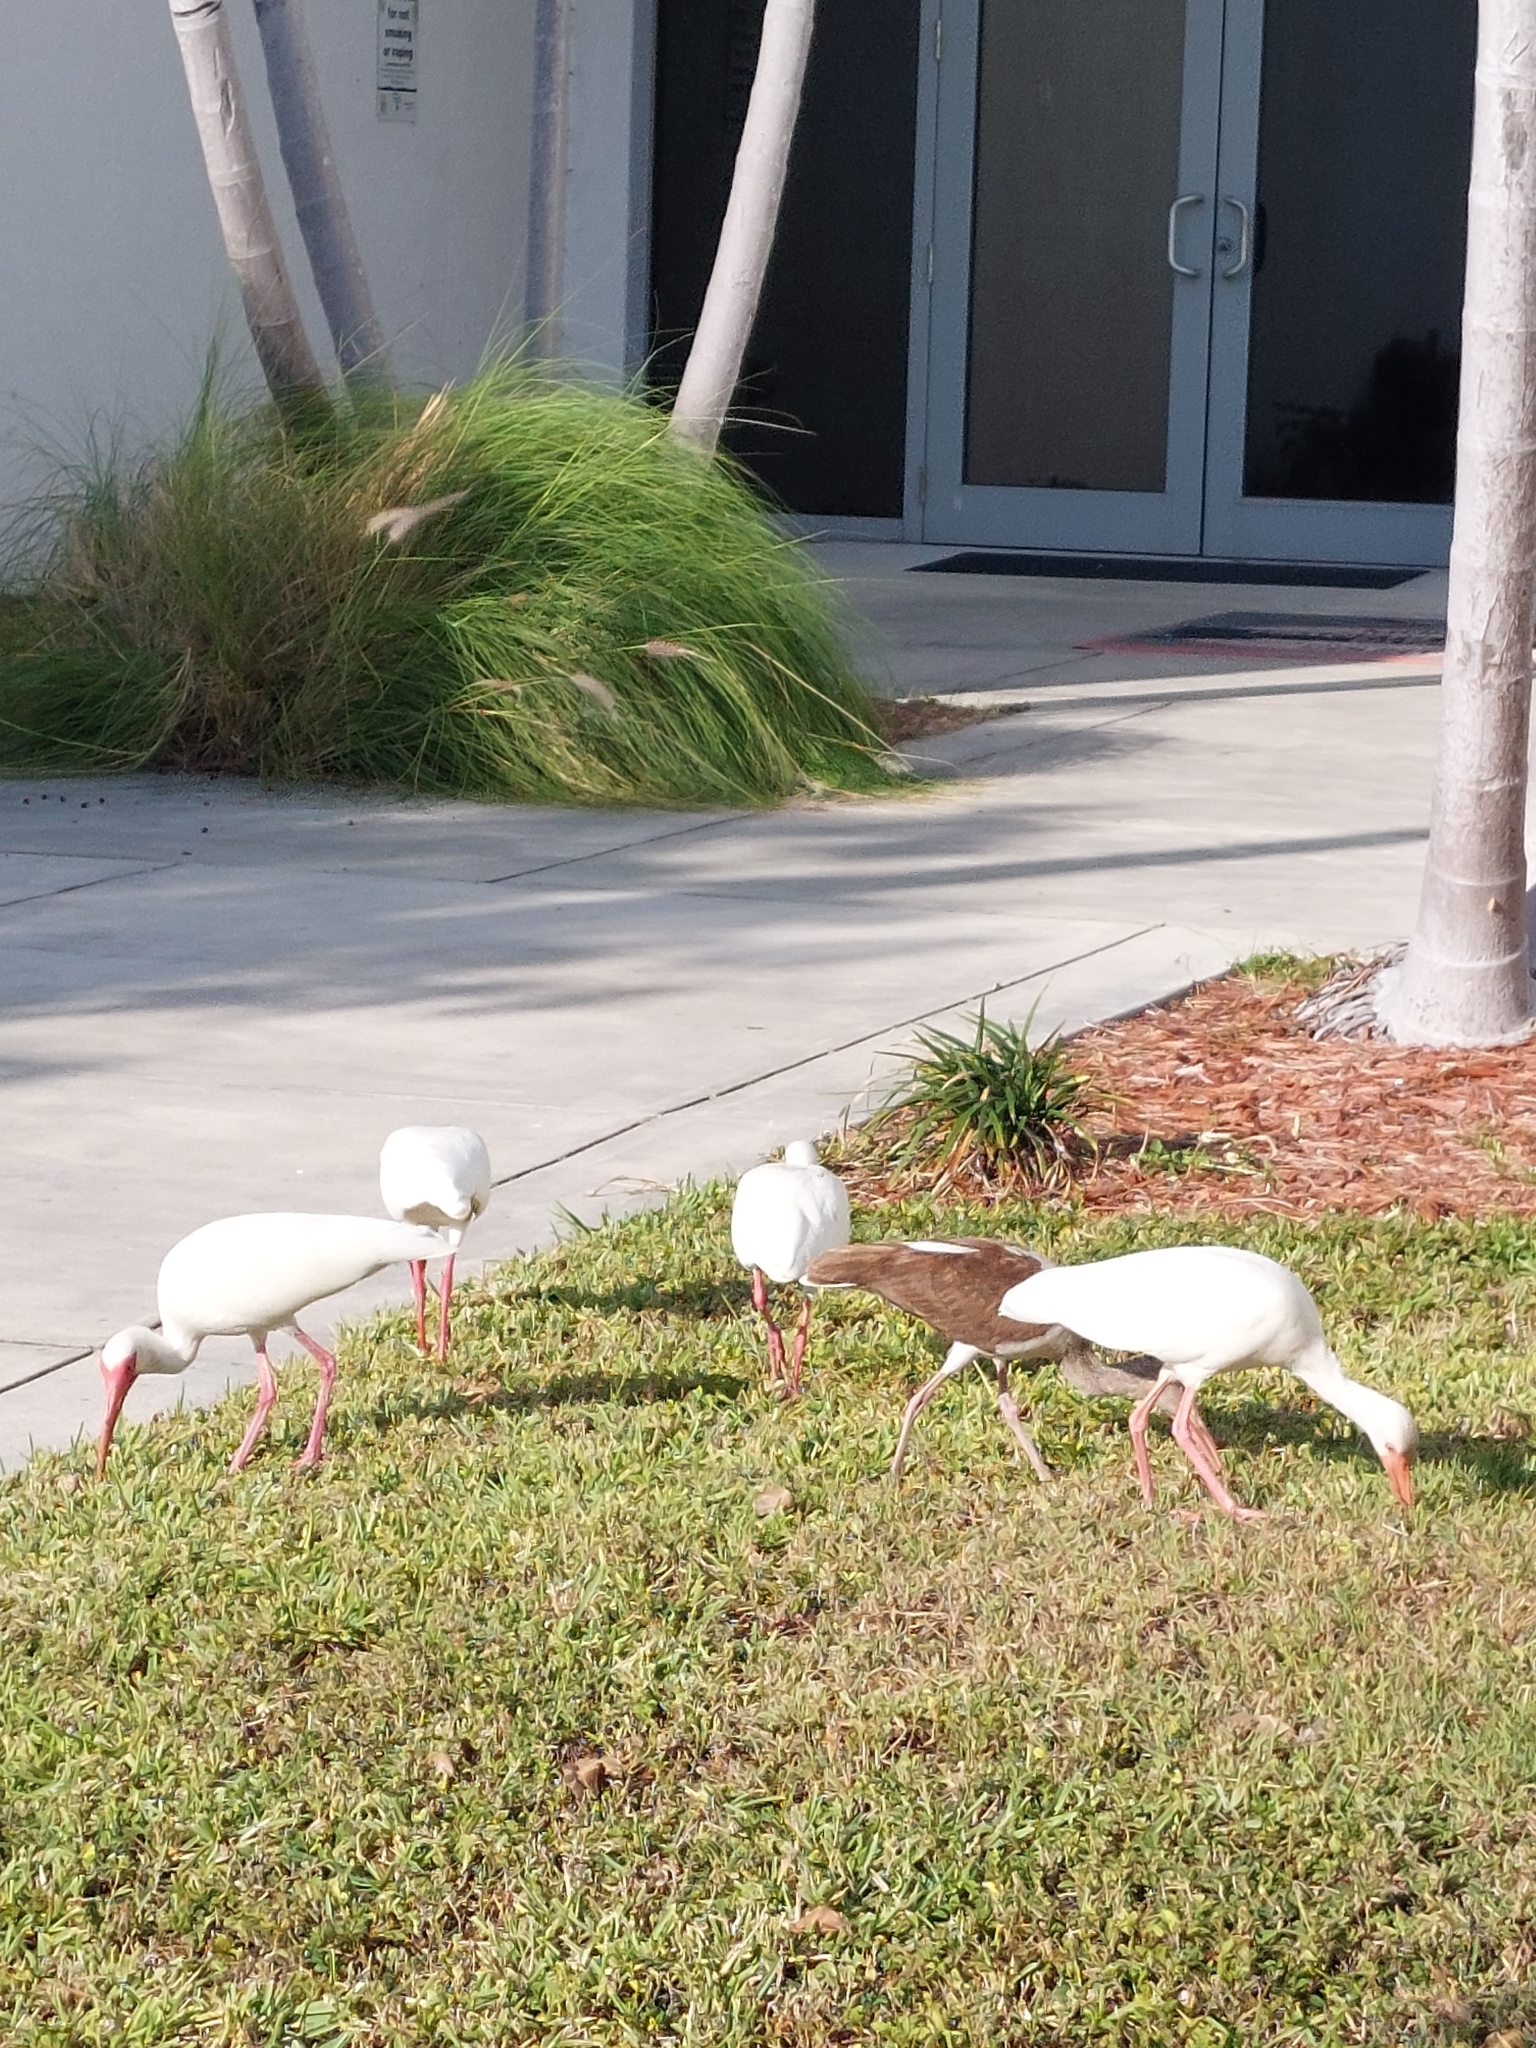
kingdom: Animalia
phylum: Chordata
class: Aves
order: Pelecaniformes
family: Threskiornithidae
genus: Eudocimus
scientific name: Eudocimus albus
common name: White ibis
